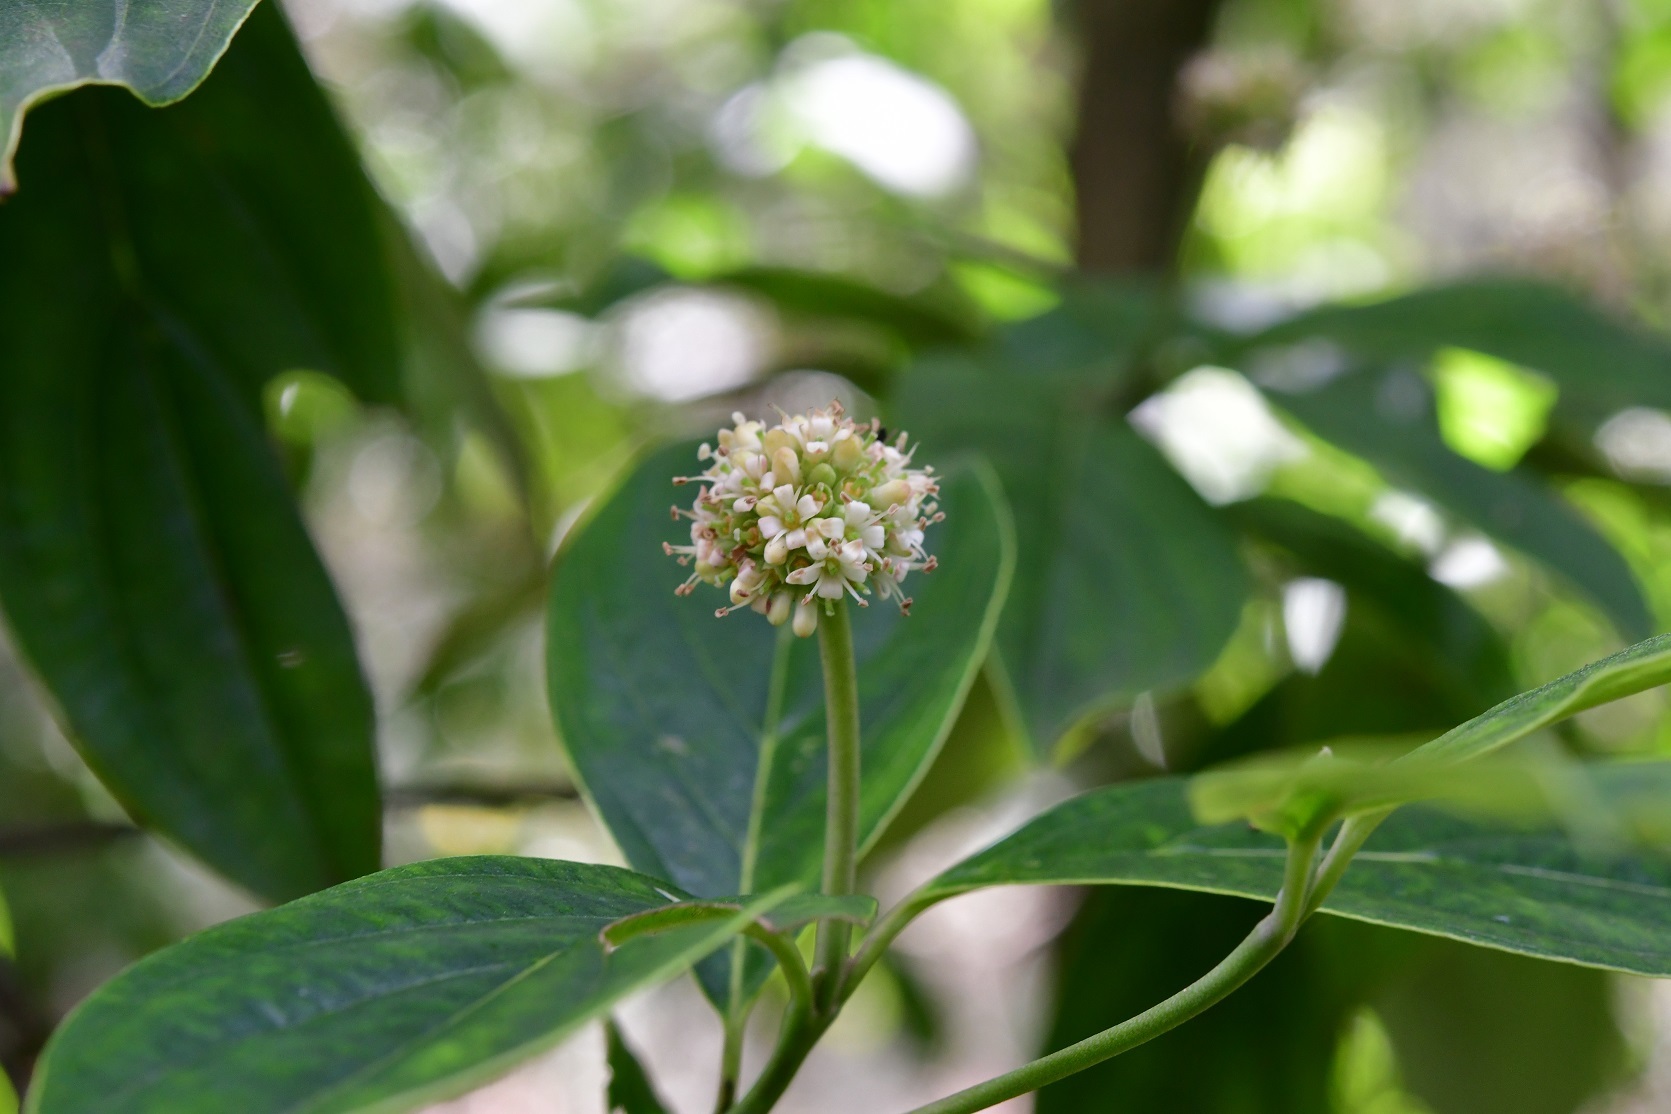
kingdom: Plantae
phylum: Tracheophyta
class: Magnoliopsida
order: Cornales
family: Cornaceae
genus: Cornus
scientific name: Cornus disciflora
